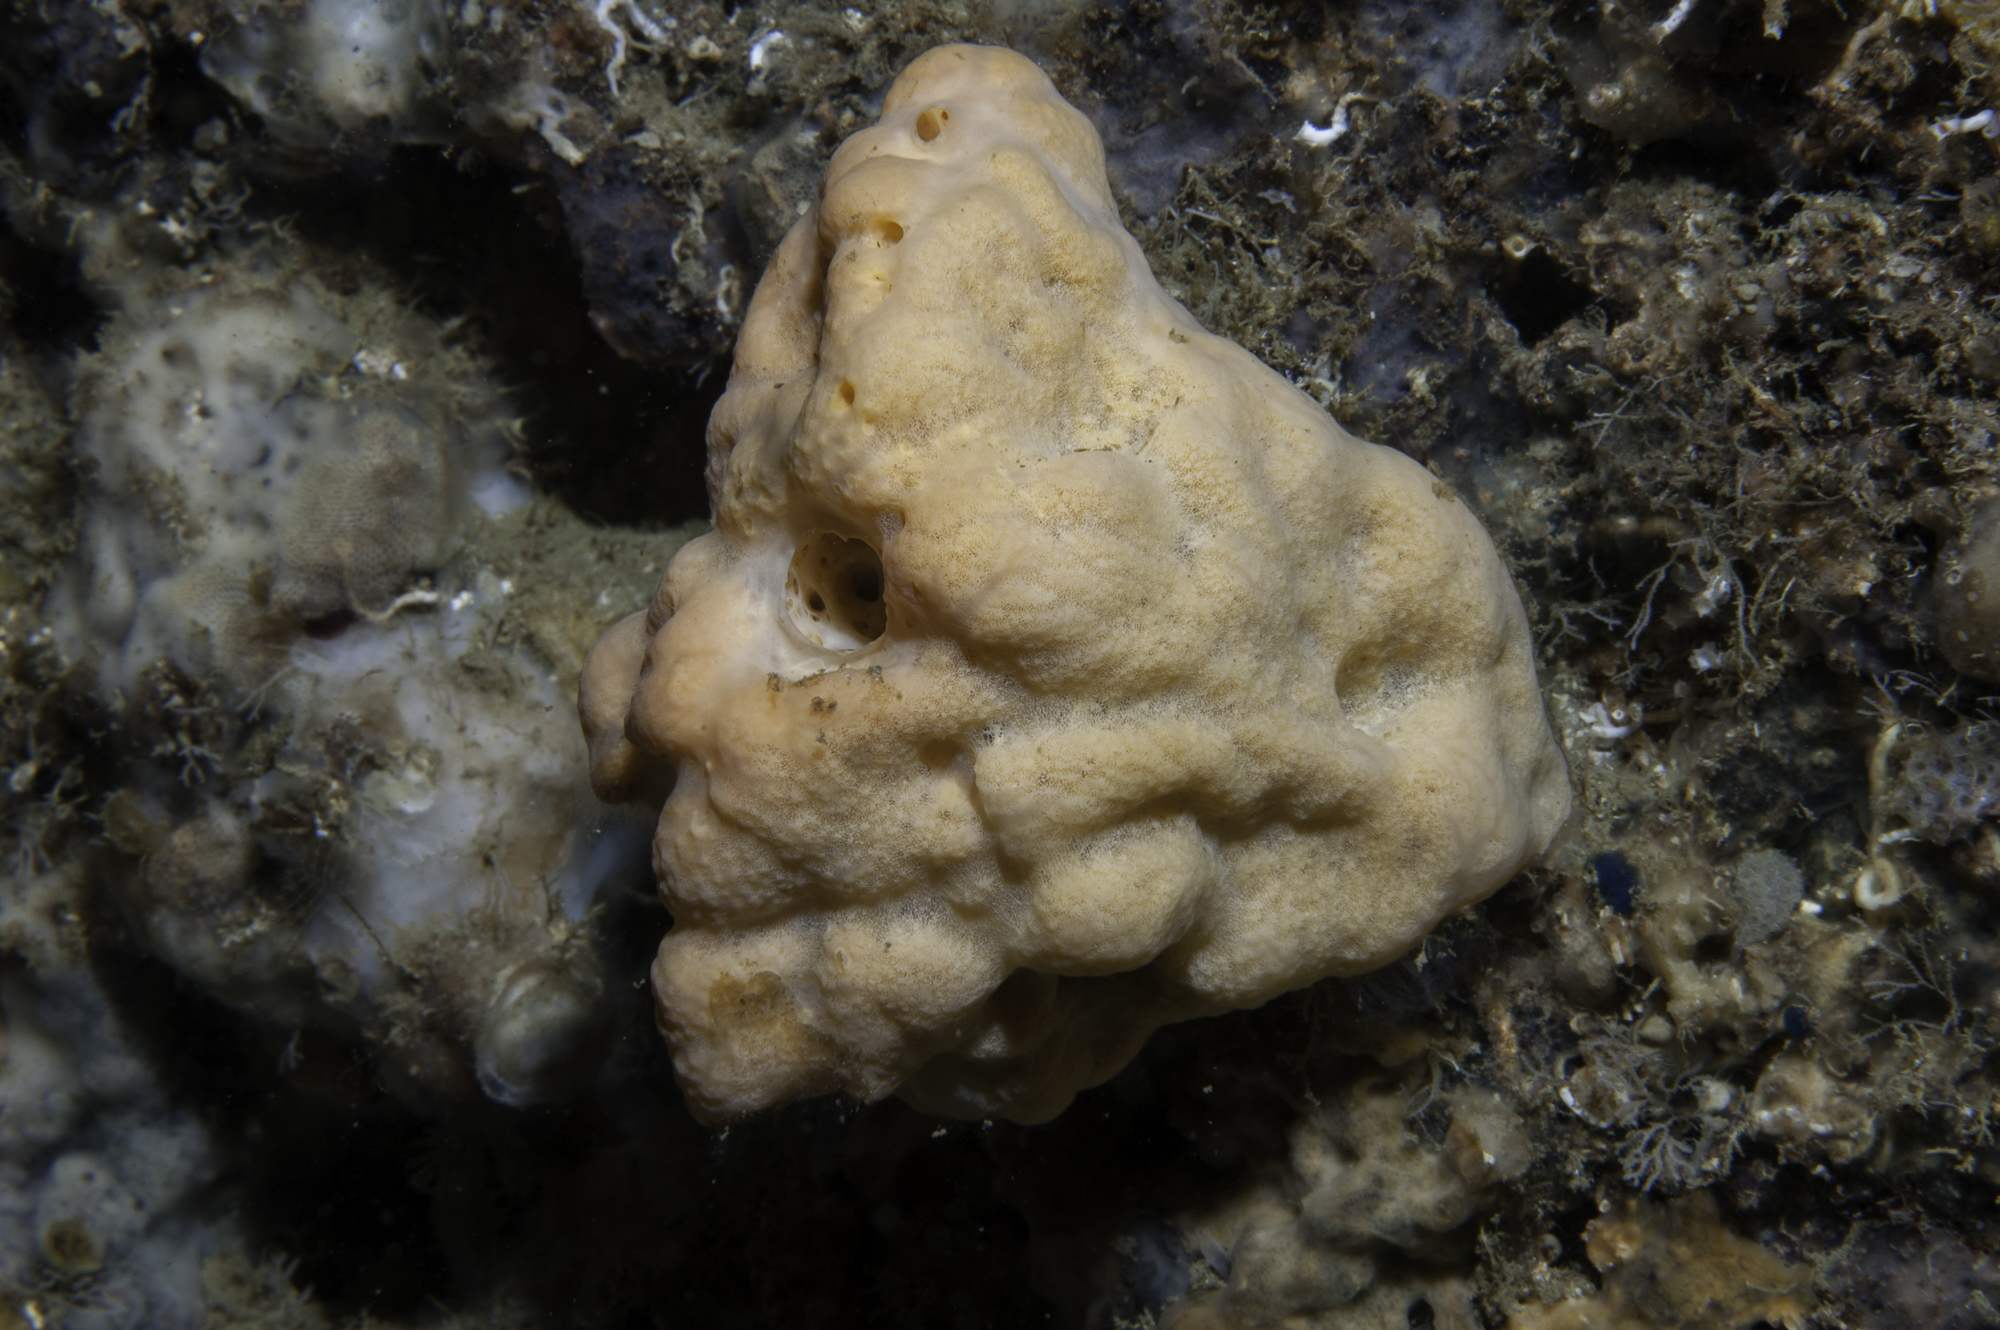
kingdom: Animalia
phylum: Porifera
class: Demospongiae
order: Agelasida
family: Agelasidae
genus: Agelas
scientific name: Agelas oroides
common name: Maltese sponge
